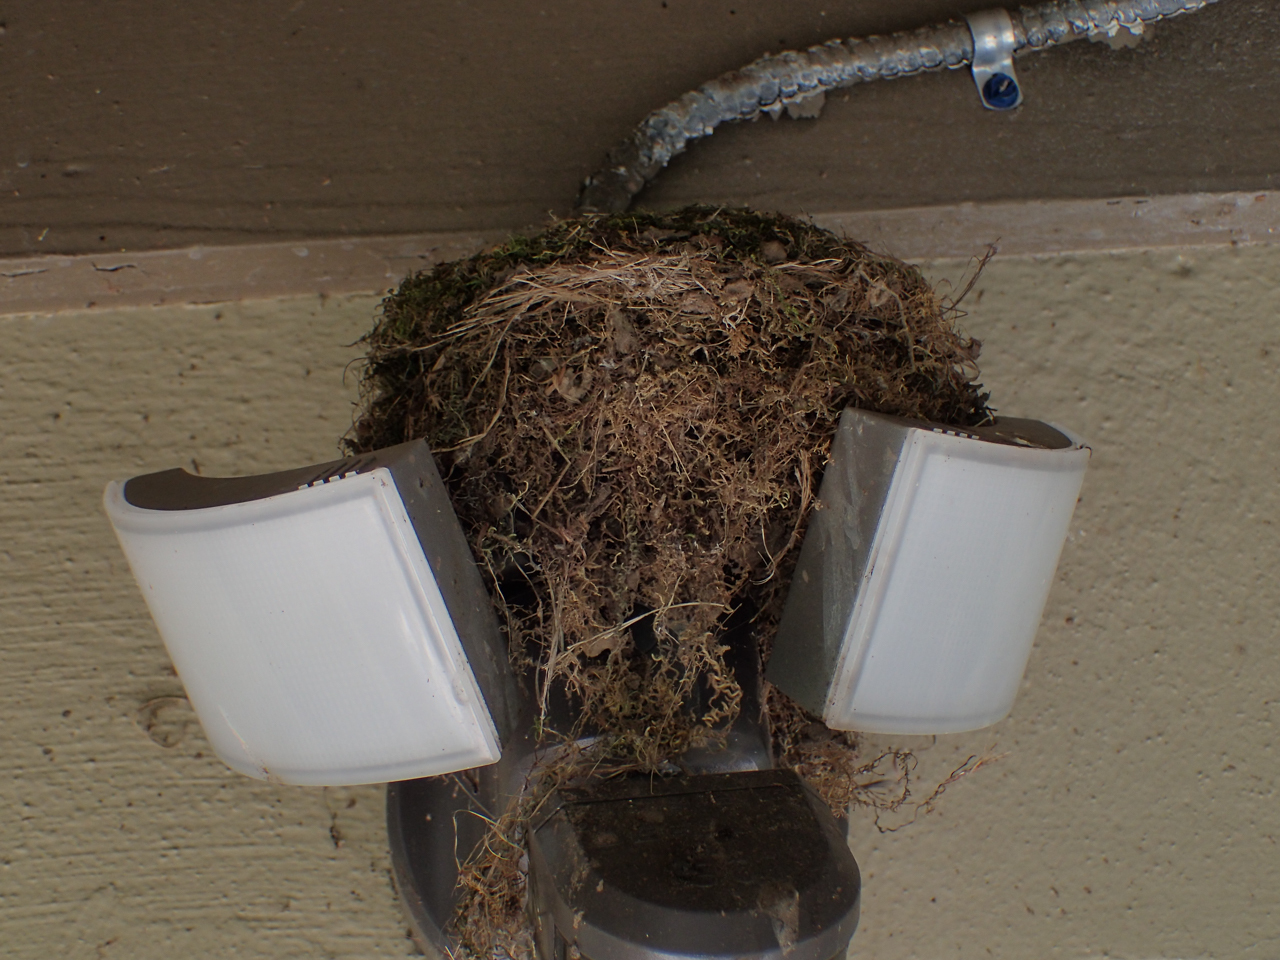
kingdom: Animalia
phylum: Chordata
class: Aves
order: Passeriformes
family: Tyrannidae
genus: Sayornis
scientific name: Sayornis phoebe
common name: Eastern phoebe
